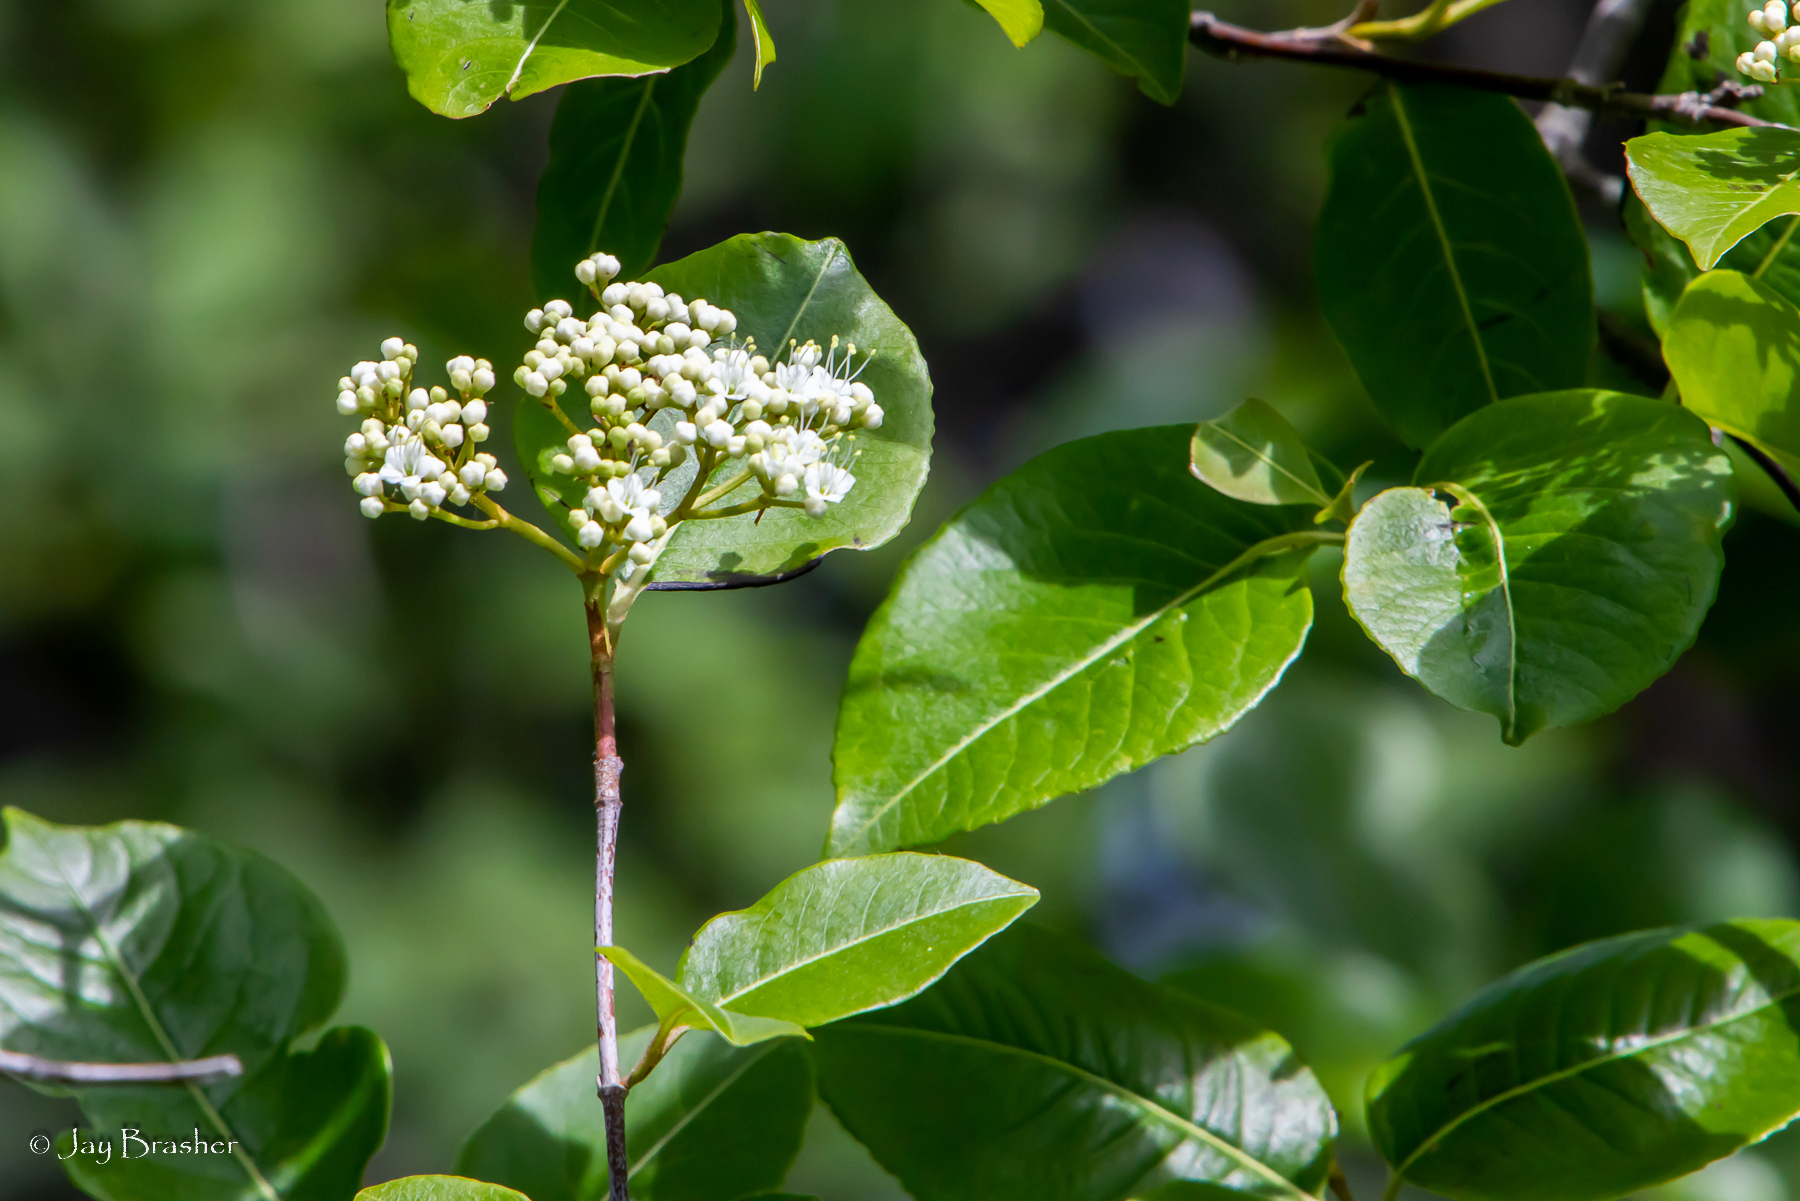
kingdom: Plantae
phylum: Tracheophyta
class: Magnoliopsida
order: Dipsacales
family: Viburnaceae
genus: Viburnum
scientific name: Viburnum cassinoides
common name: Swamp haw
